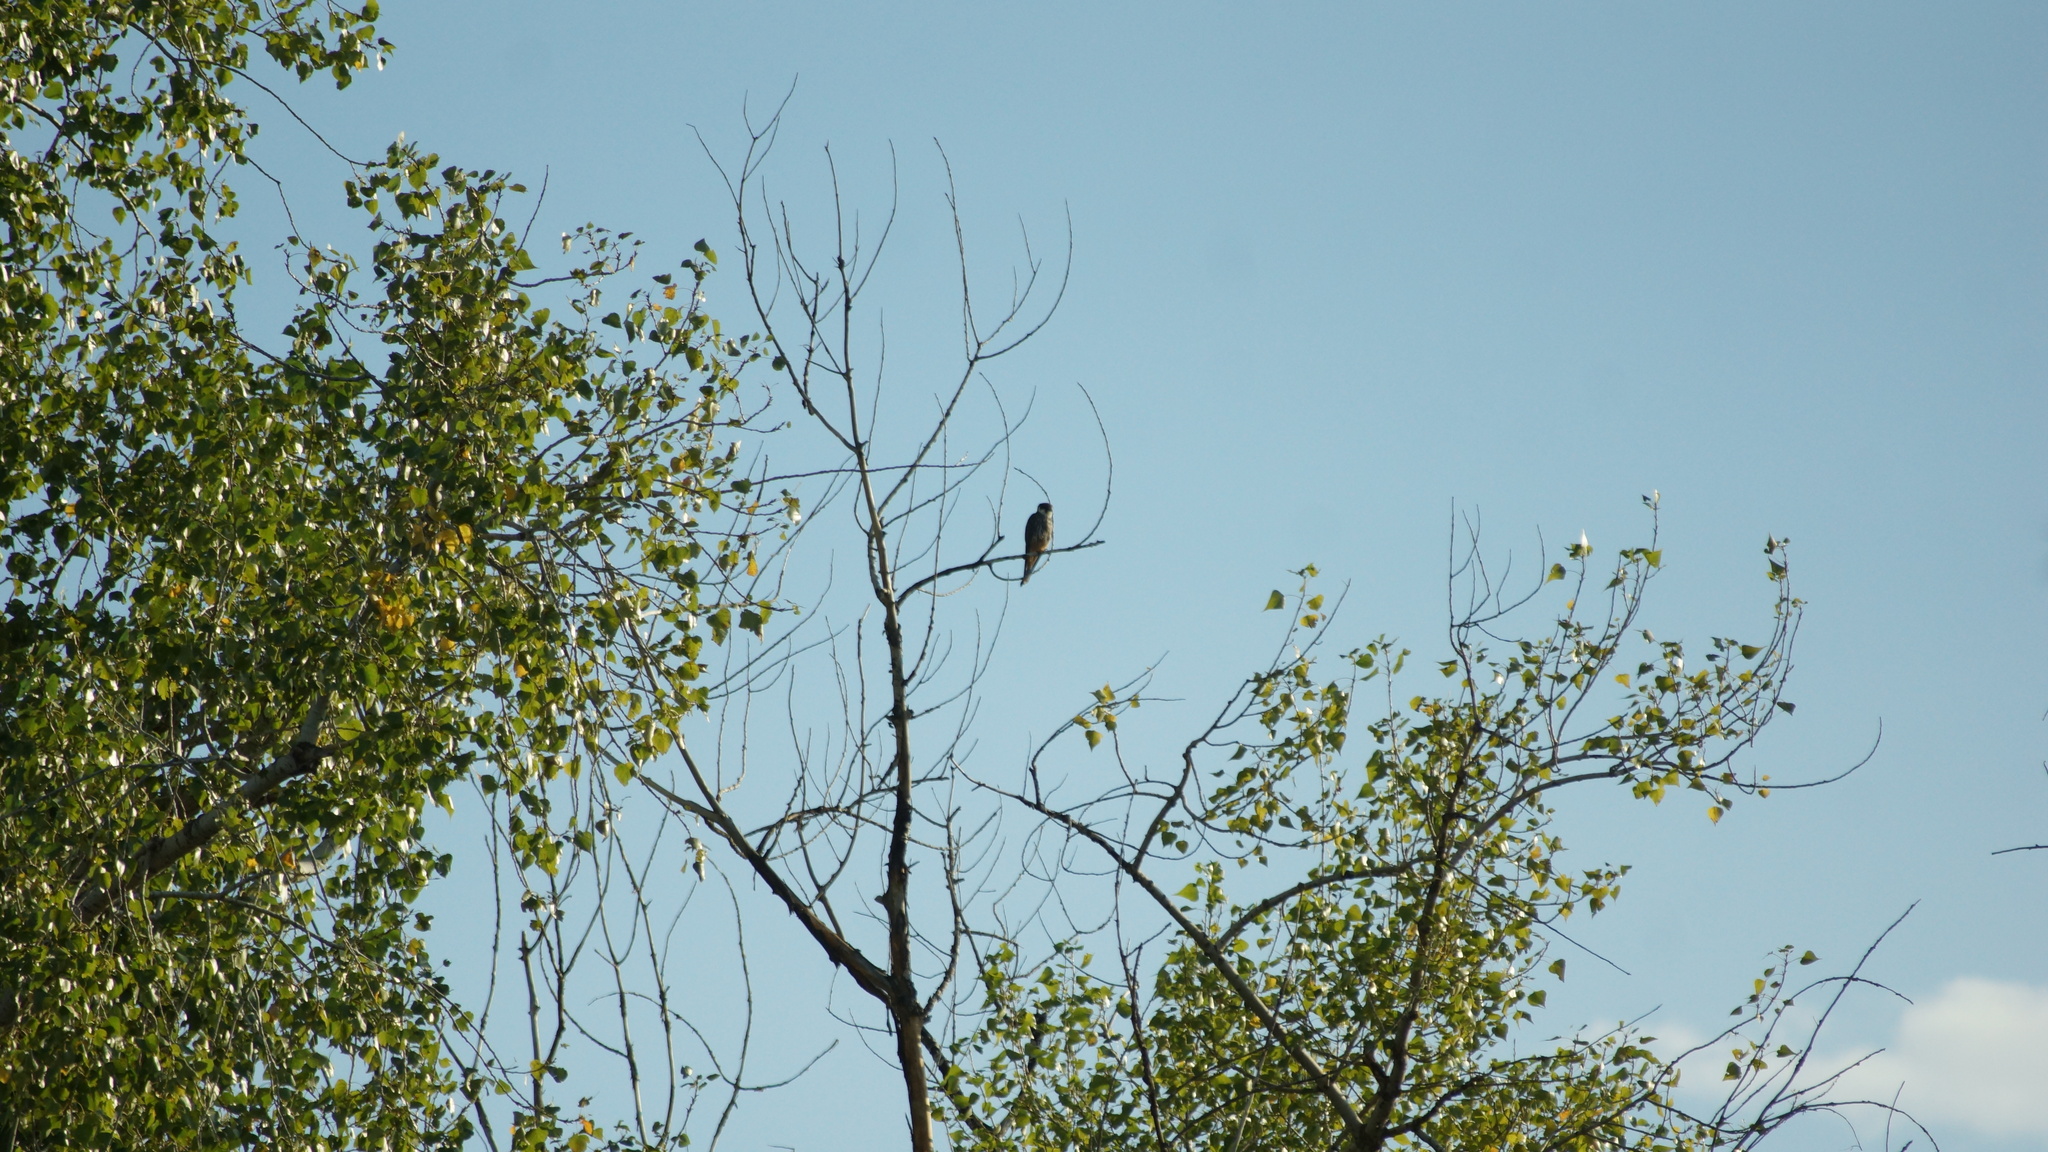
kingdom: Animalia
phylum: Chordata
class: Aves
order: Falconiformes
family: Falconidae
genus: Falco
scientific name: Falco subbuteo
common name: Eurasian hobby
